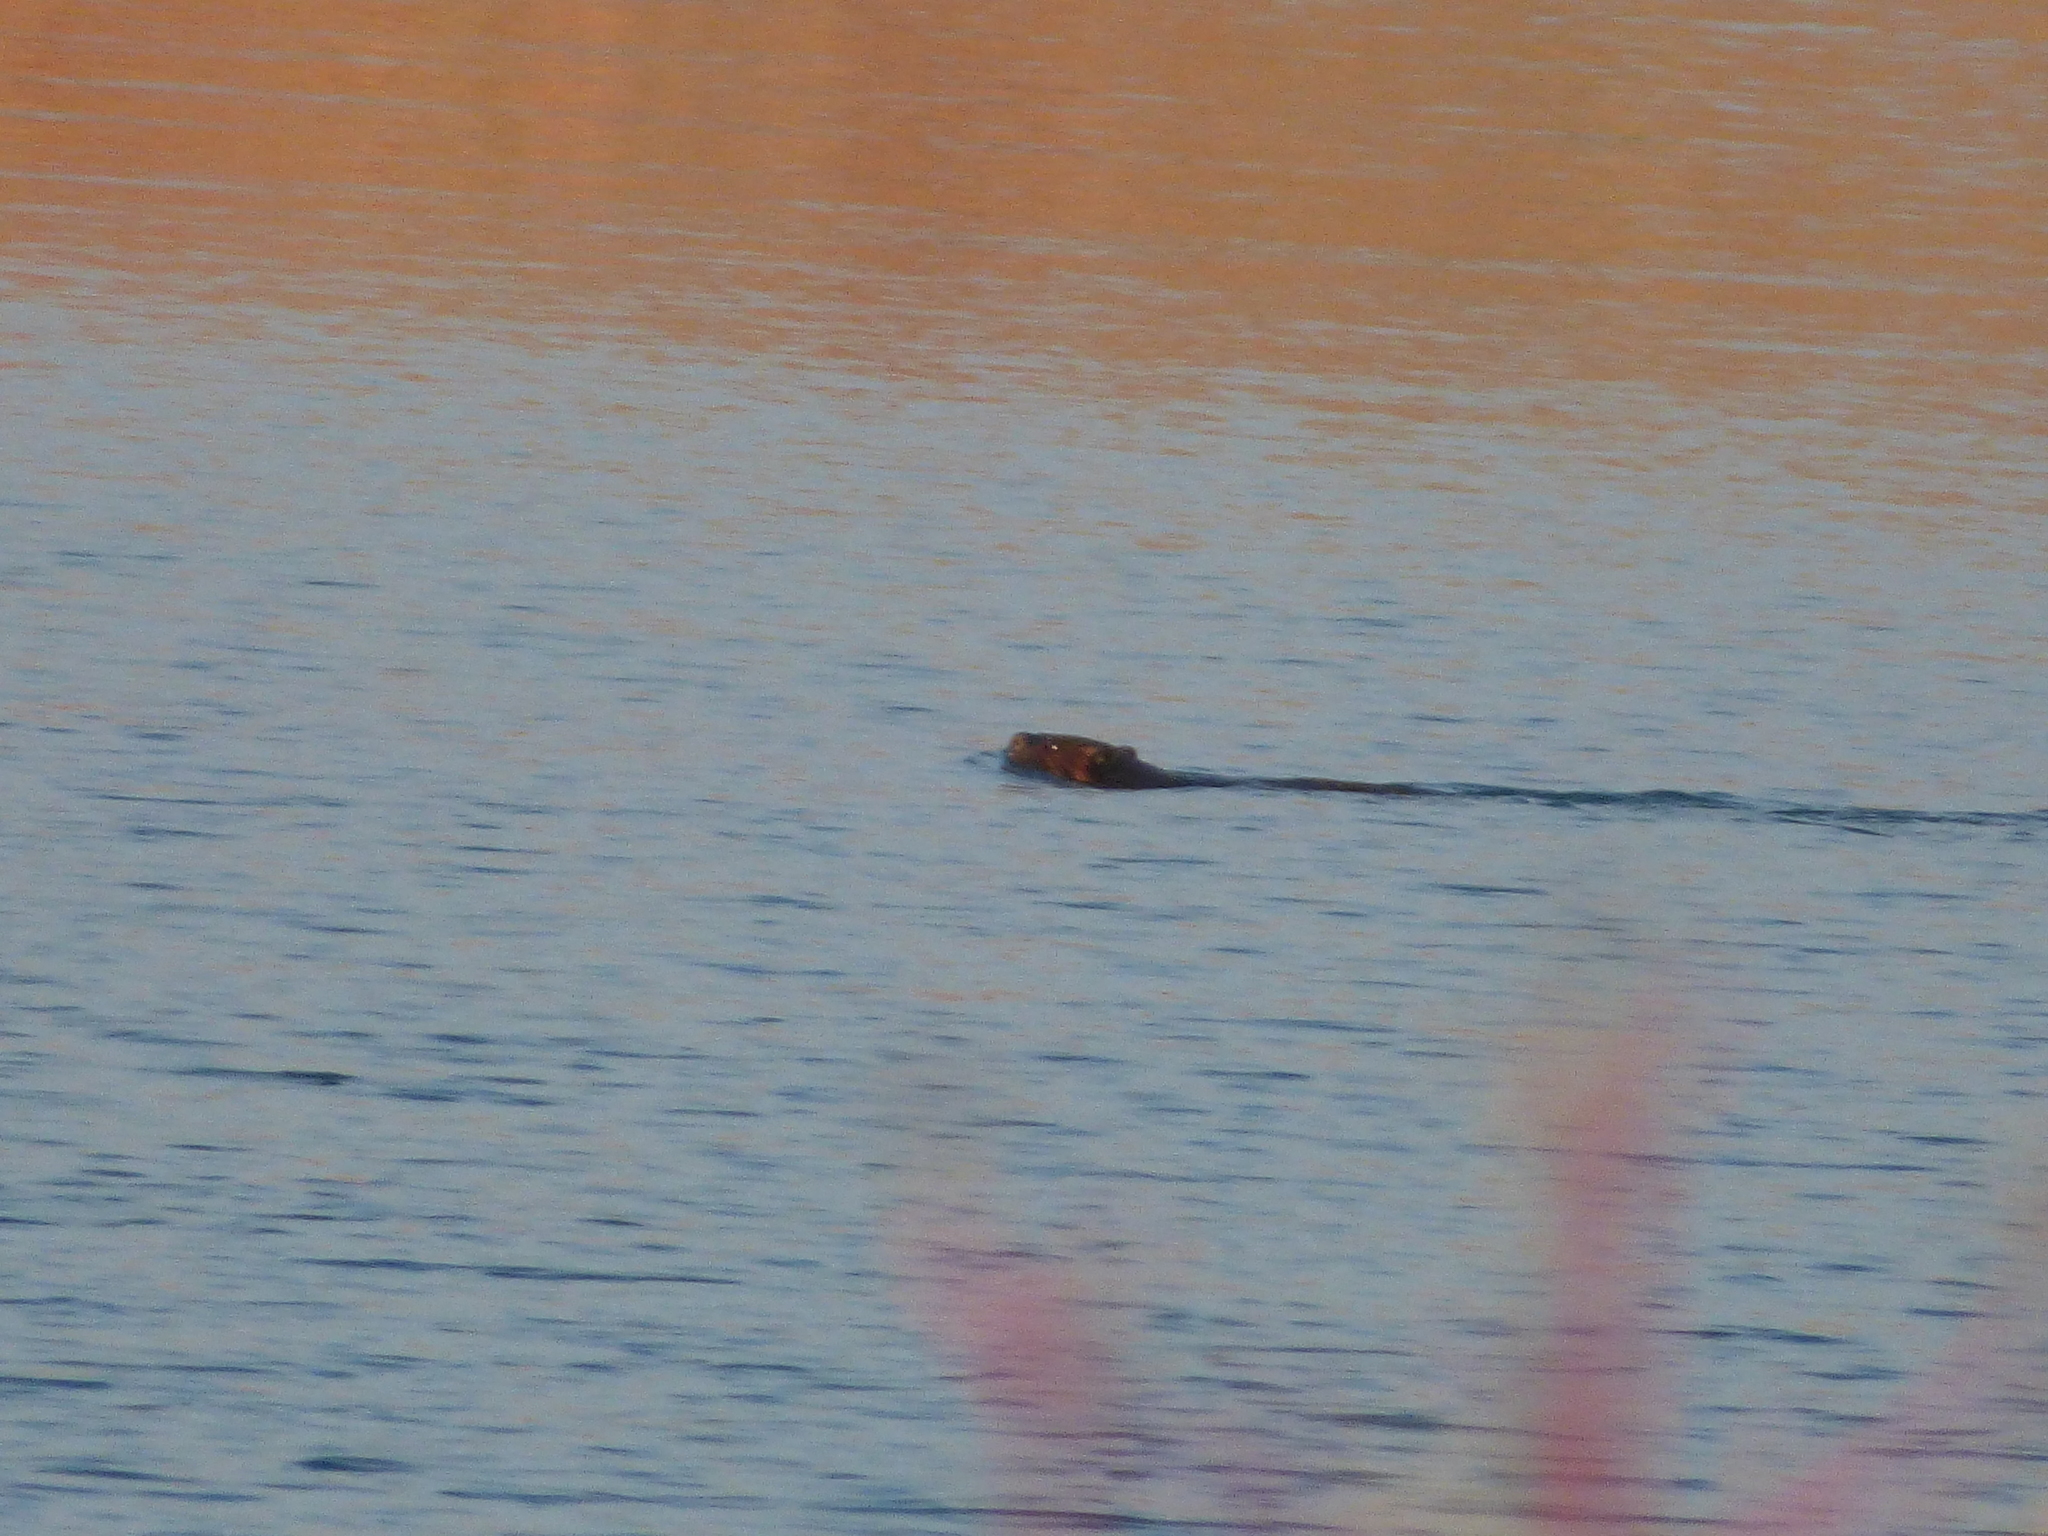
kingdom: Animalia
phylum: Chordata
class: Mammalia
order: Rodentia
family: Castoridae
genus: Castor
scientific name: Castor canadensis
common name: American beaver
